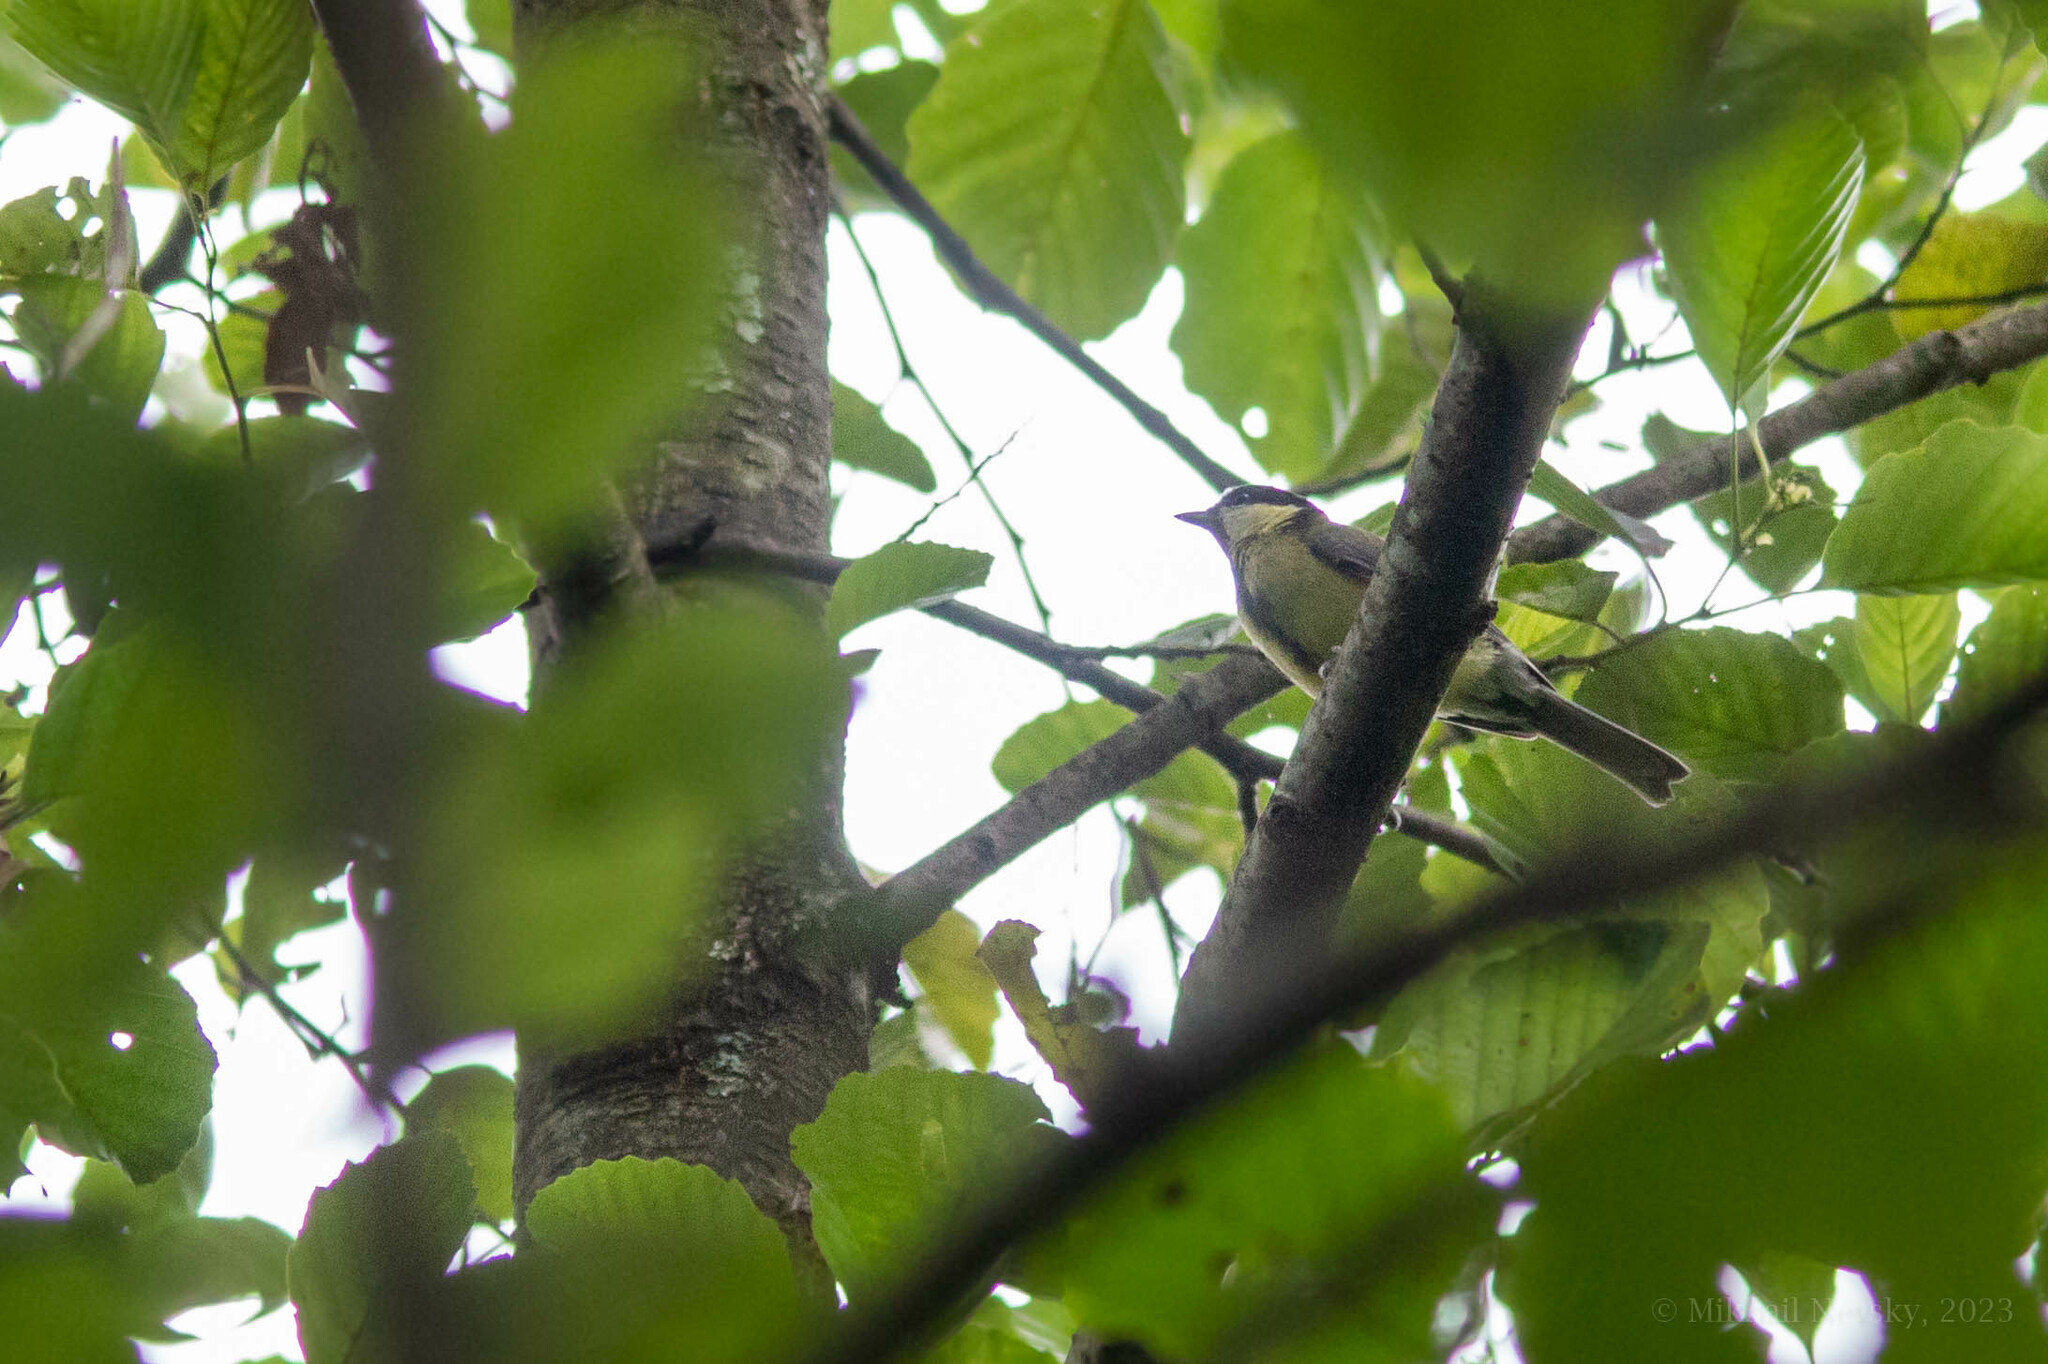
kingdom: Animalia
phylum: Chordata
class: Aves
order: Passeriformes
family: Paridae
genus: Parus
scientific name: Parus major
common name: Great tit
